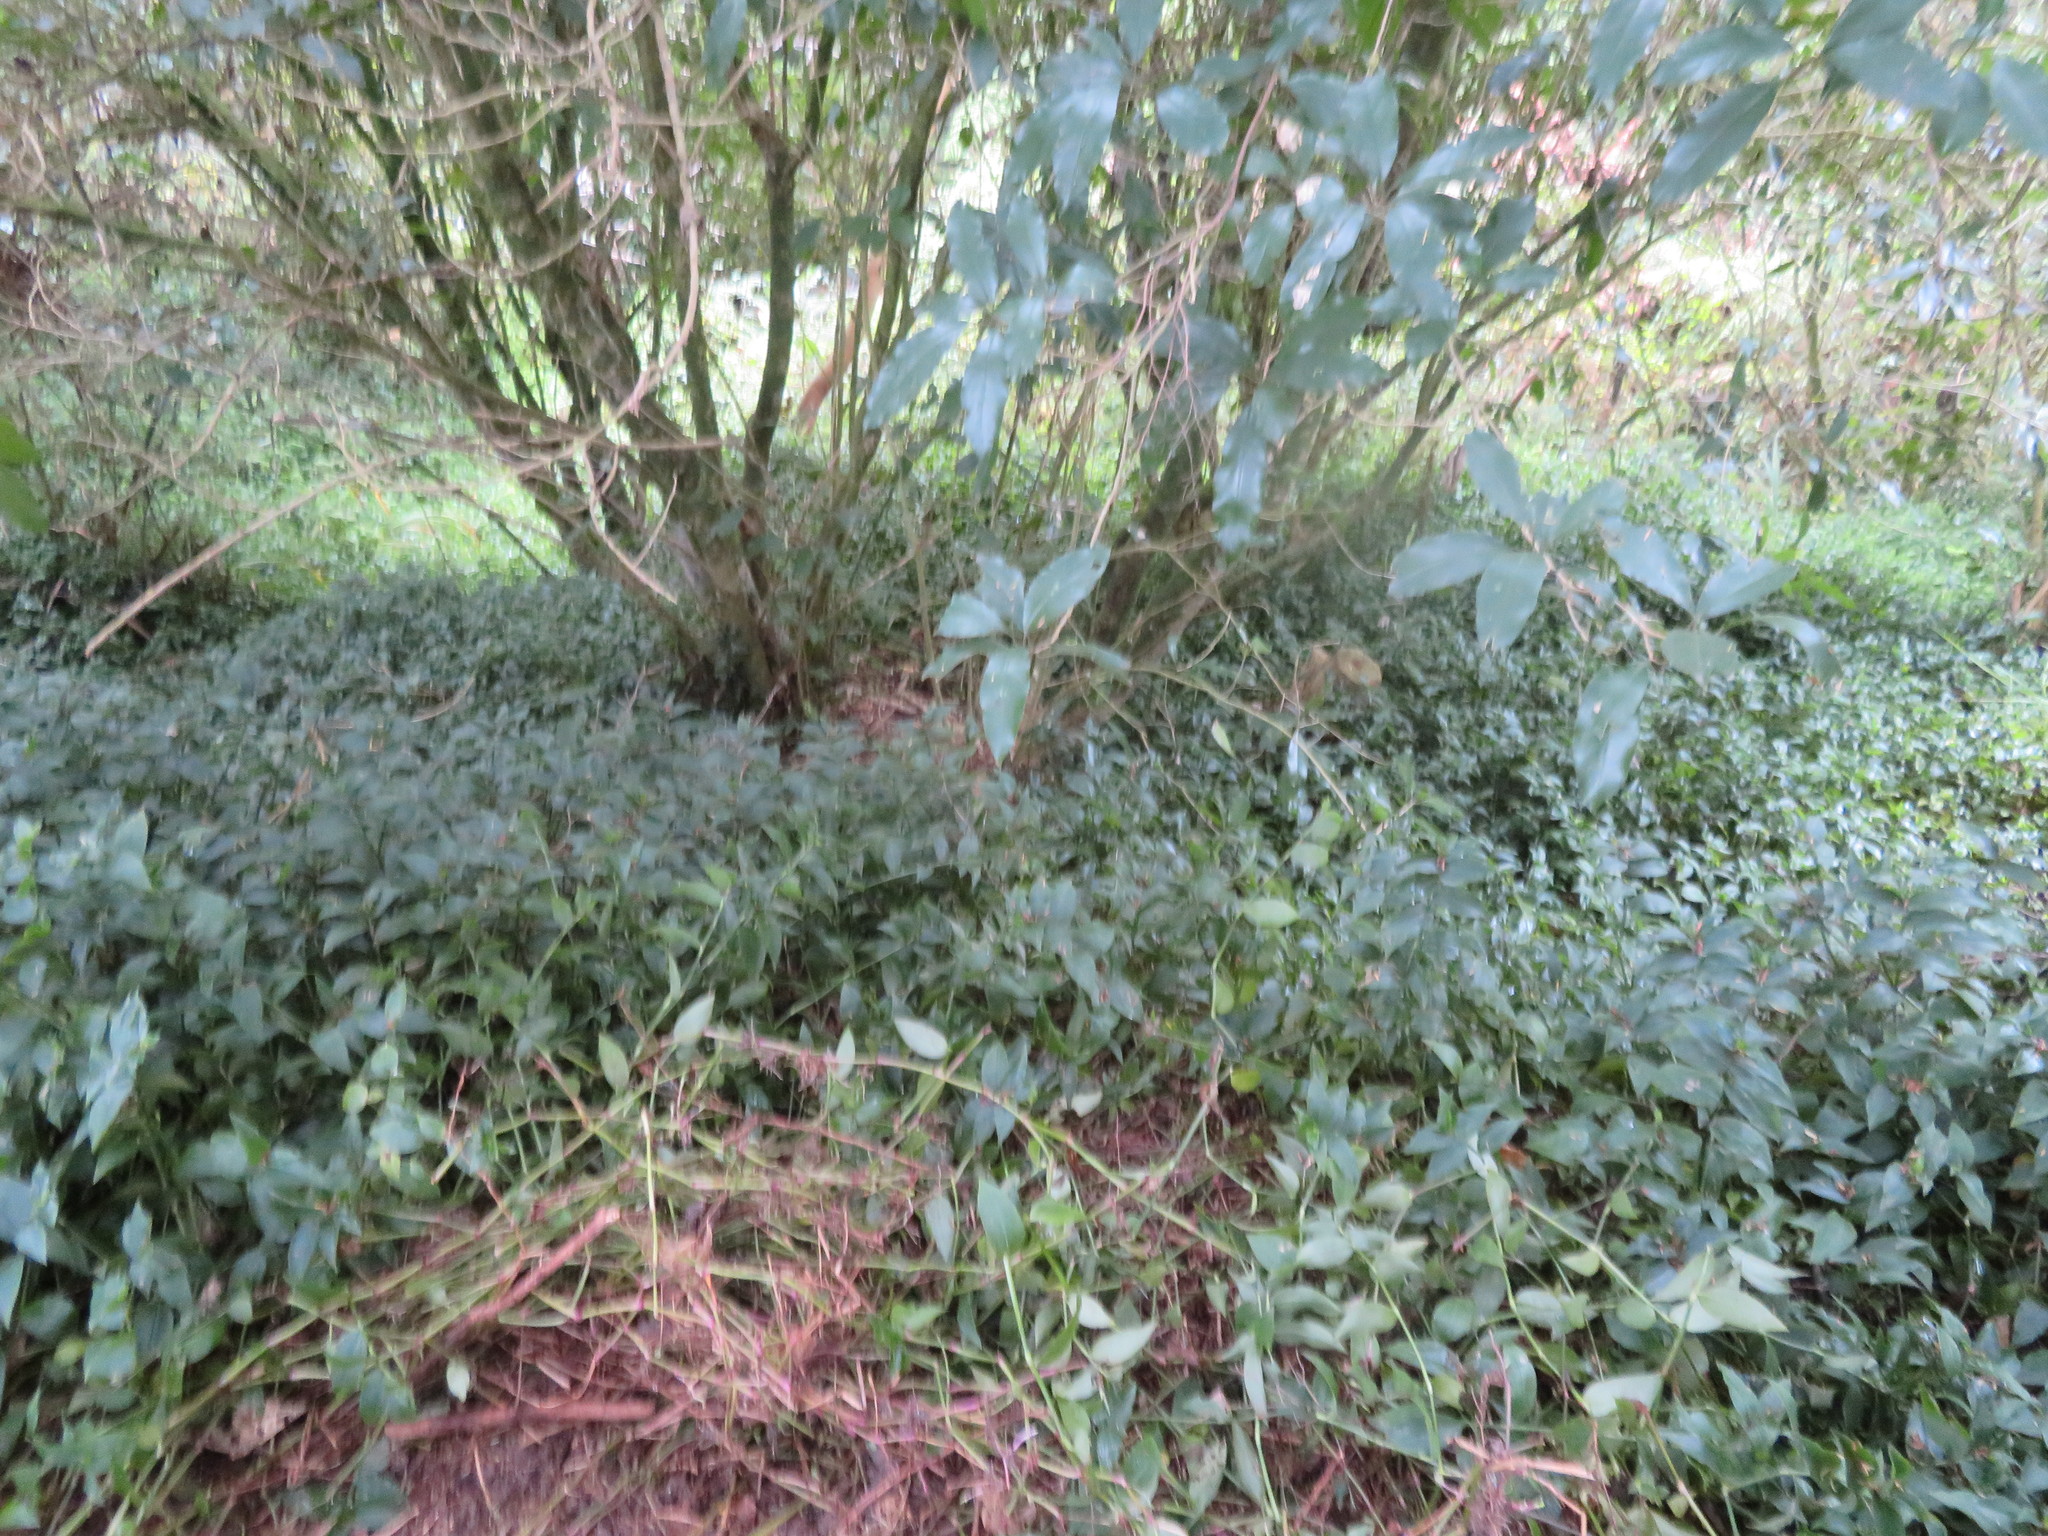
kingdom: Plantae
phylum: Tracheophyta
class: Magnoliopsida
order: Malpighiales
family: Violaceae
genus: Melicytus
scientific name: Melicytus ramiflorus
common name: Mahoe
